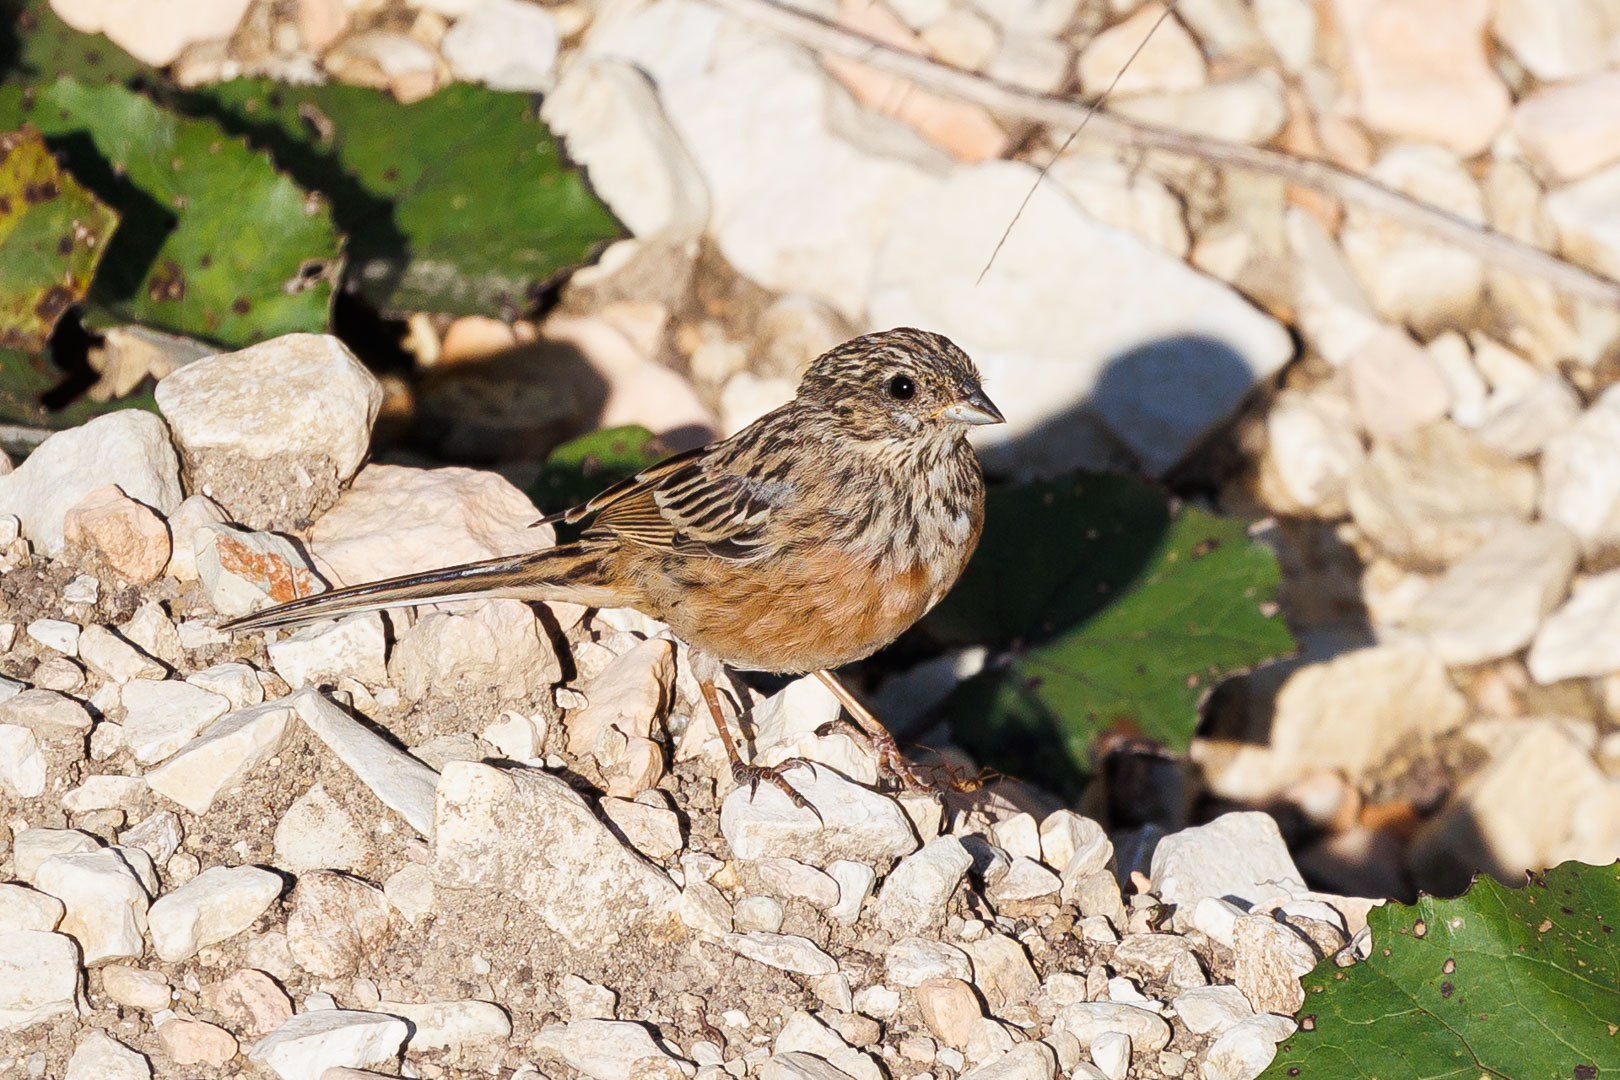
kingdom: Animalia
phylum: Chordata
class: Aves
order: Passeriformes
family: Emberizidae
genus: Emberiza
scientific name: Emberiza cia
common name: Rock bunting
